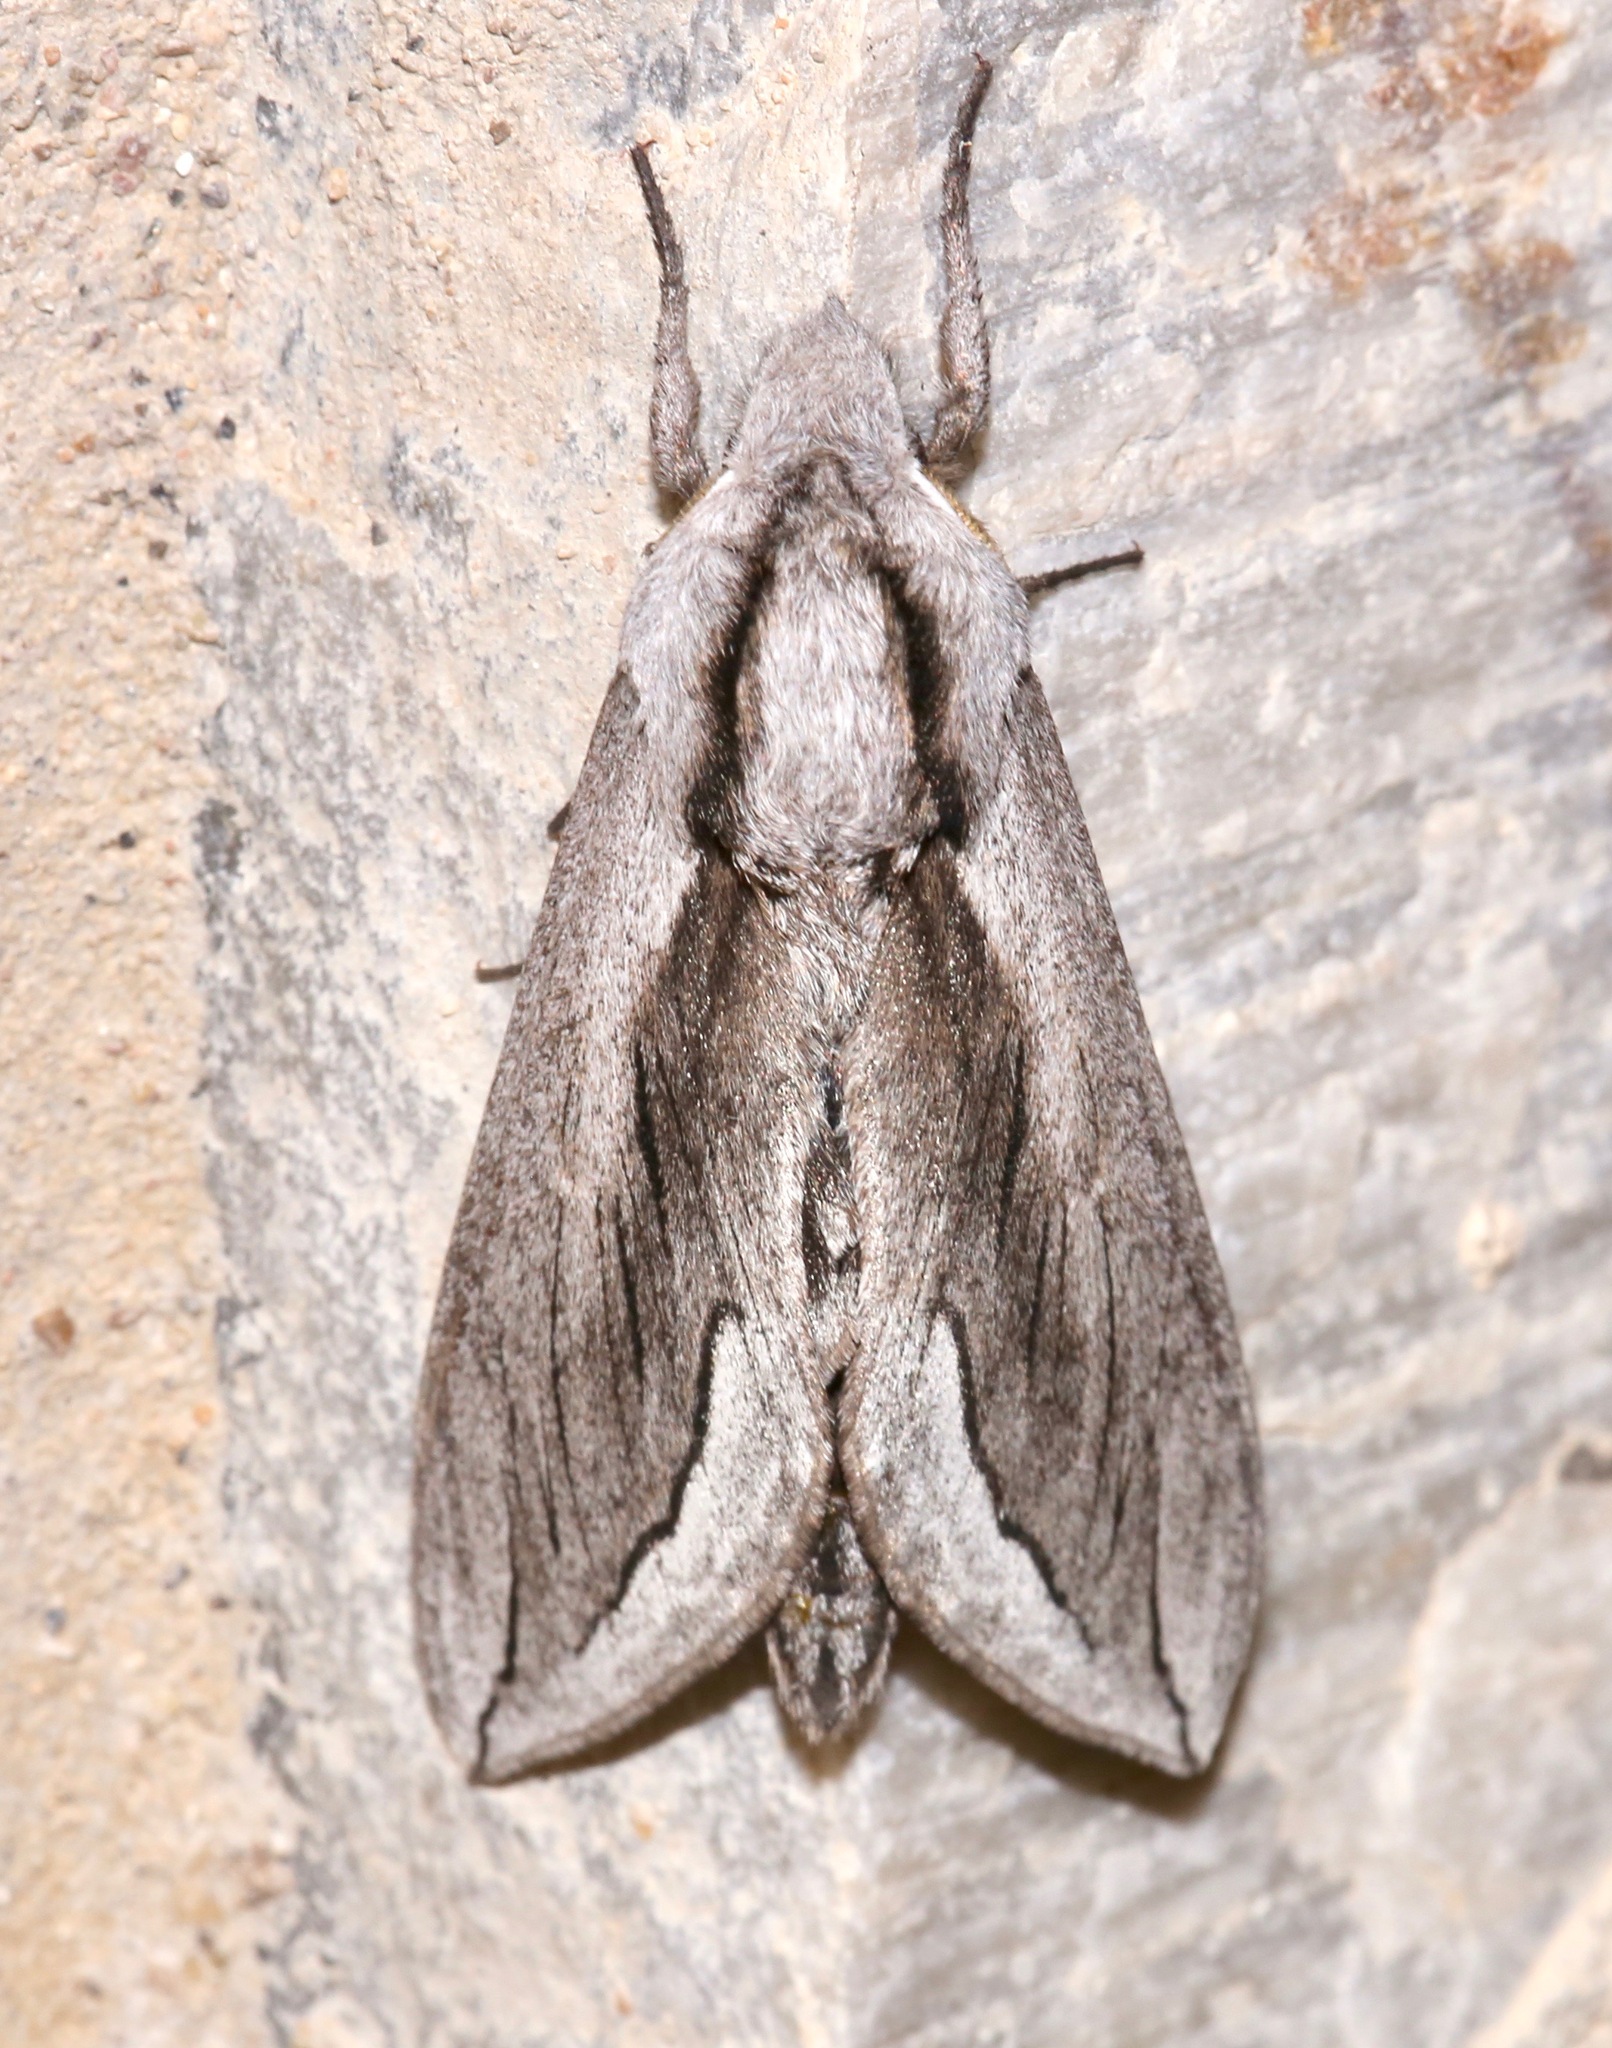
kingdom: Animalia
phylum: Arthropoda
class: Insecta
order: Lepidoptera
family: Sphingidae
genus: Sphinx
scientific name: Sphinx vashti
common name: Snowberry sphinx
